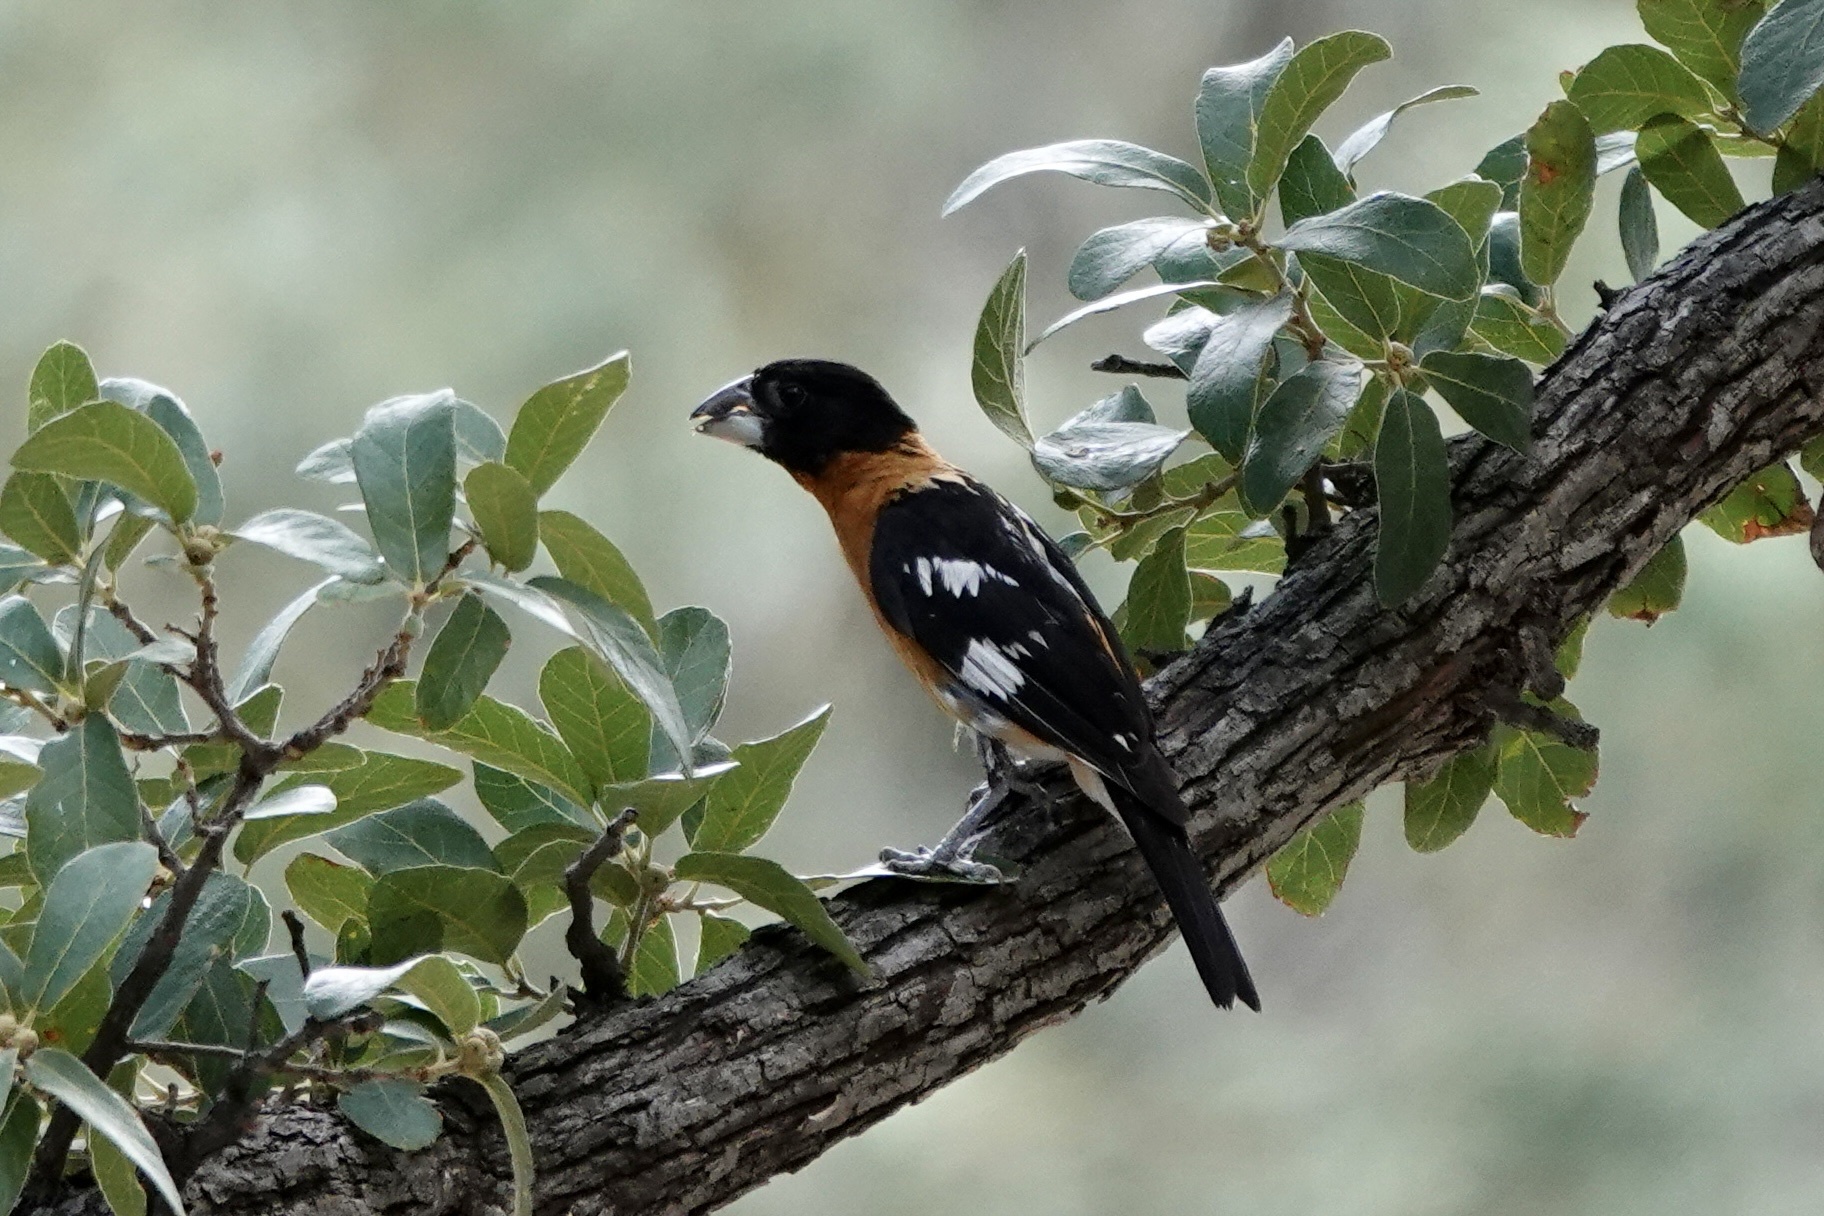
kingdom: Animalia
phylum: Chordata
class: Aves
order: Passeriformes
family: Cardinalidae
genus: Pheucticus
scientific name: Pheucticus melanocephalus
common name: Black-headed grosbeak
